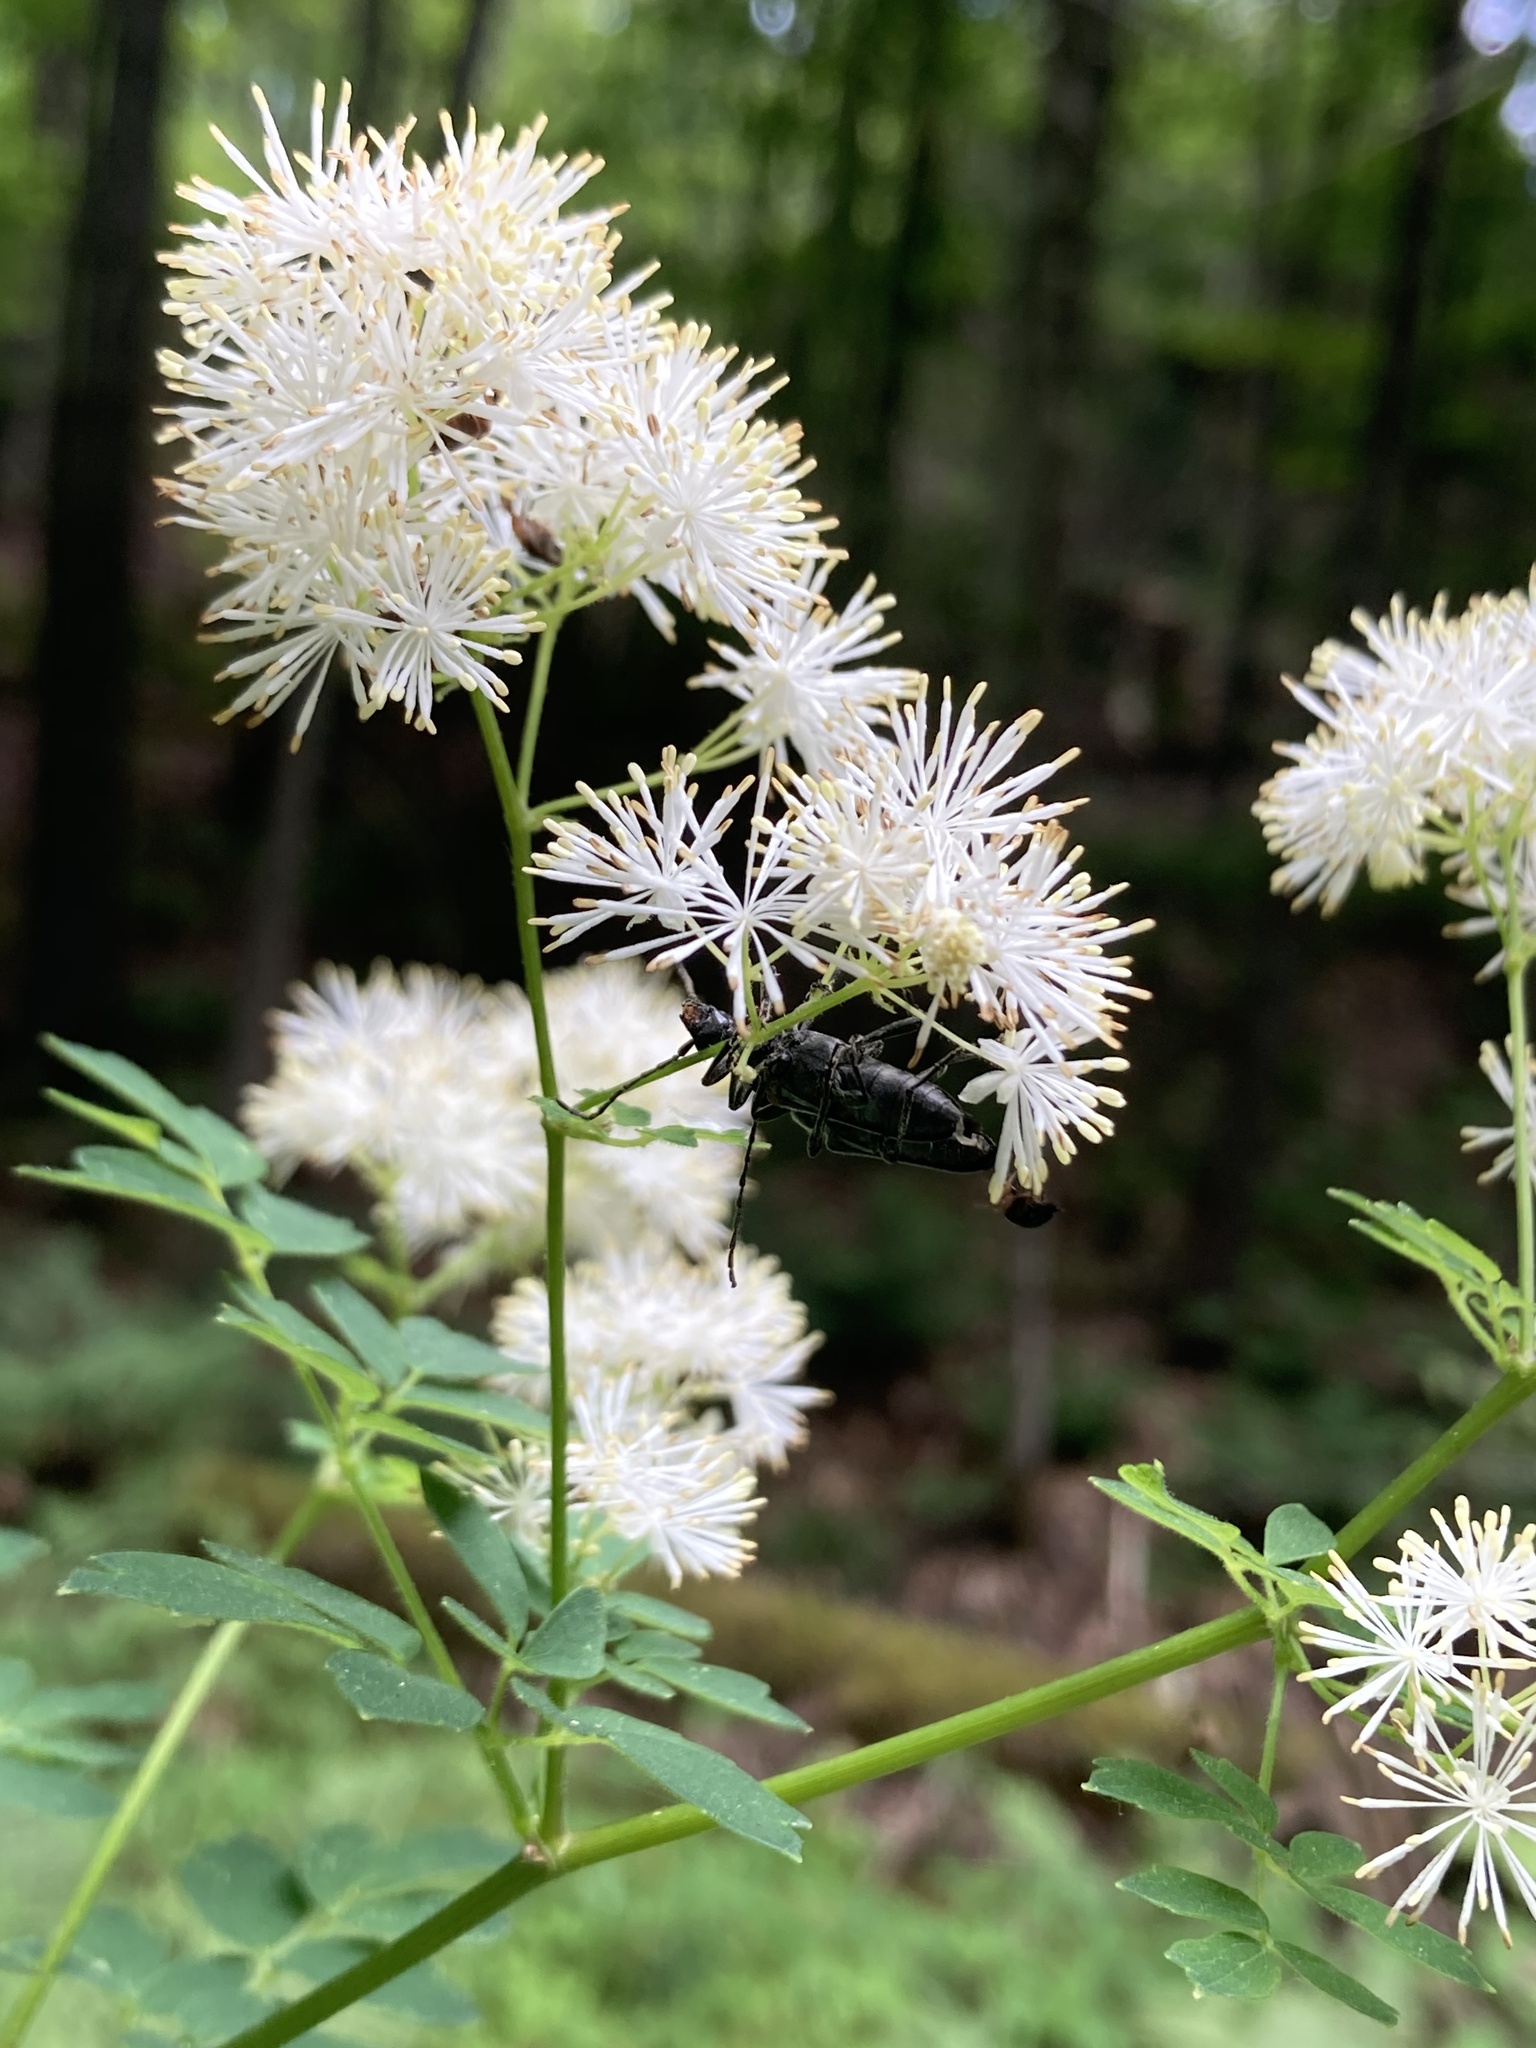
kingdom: Plantae
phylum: Tracheophyta
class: Magnoliopsida
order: Ranunculales
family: Ranunculaceae
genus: Thalictrum
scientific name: Thalictrum pubescens
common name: King-of-the-meadow
